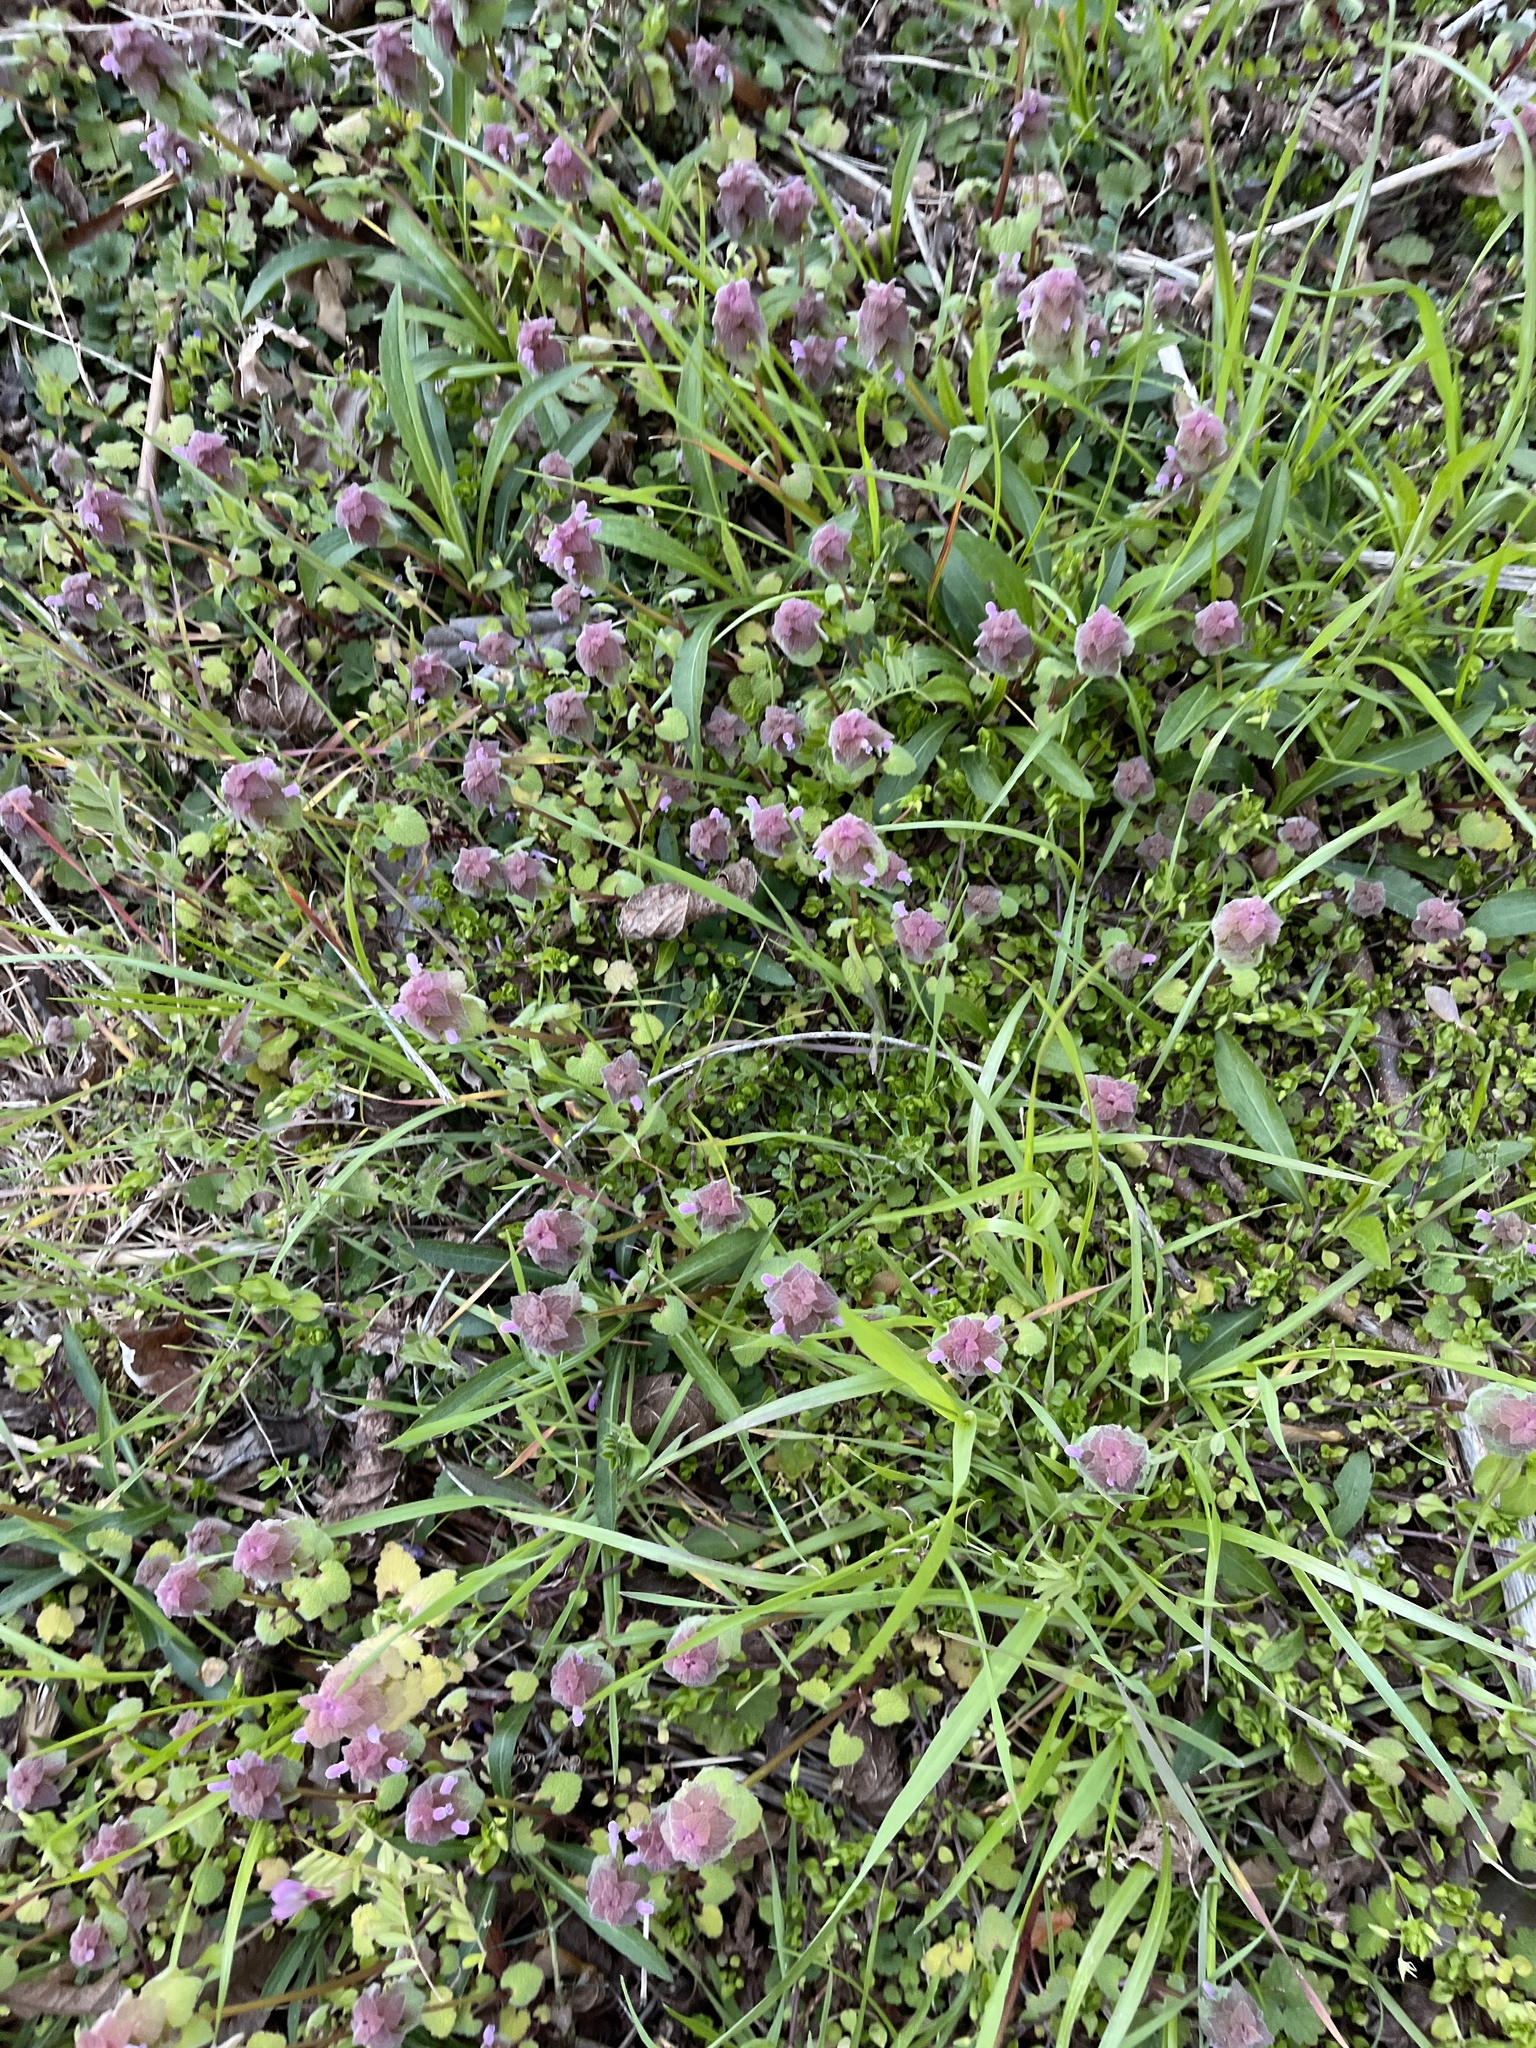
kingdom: Plantae
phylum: Tracheophyta
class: Magnoliopsida
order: Lamiales
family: Lamiaceae
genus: Lamium
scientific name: Lamium purpureum
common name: Red dead-nettle
